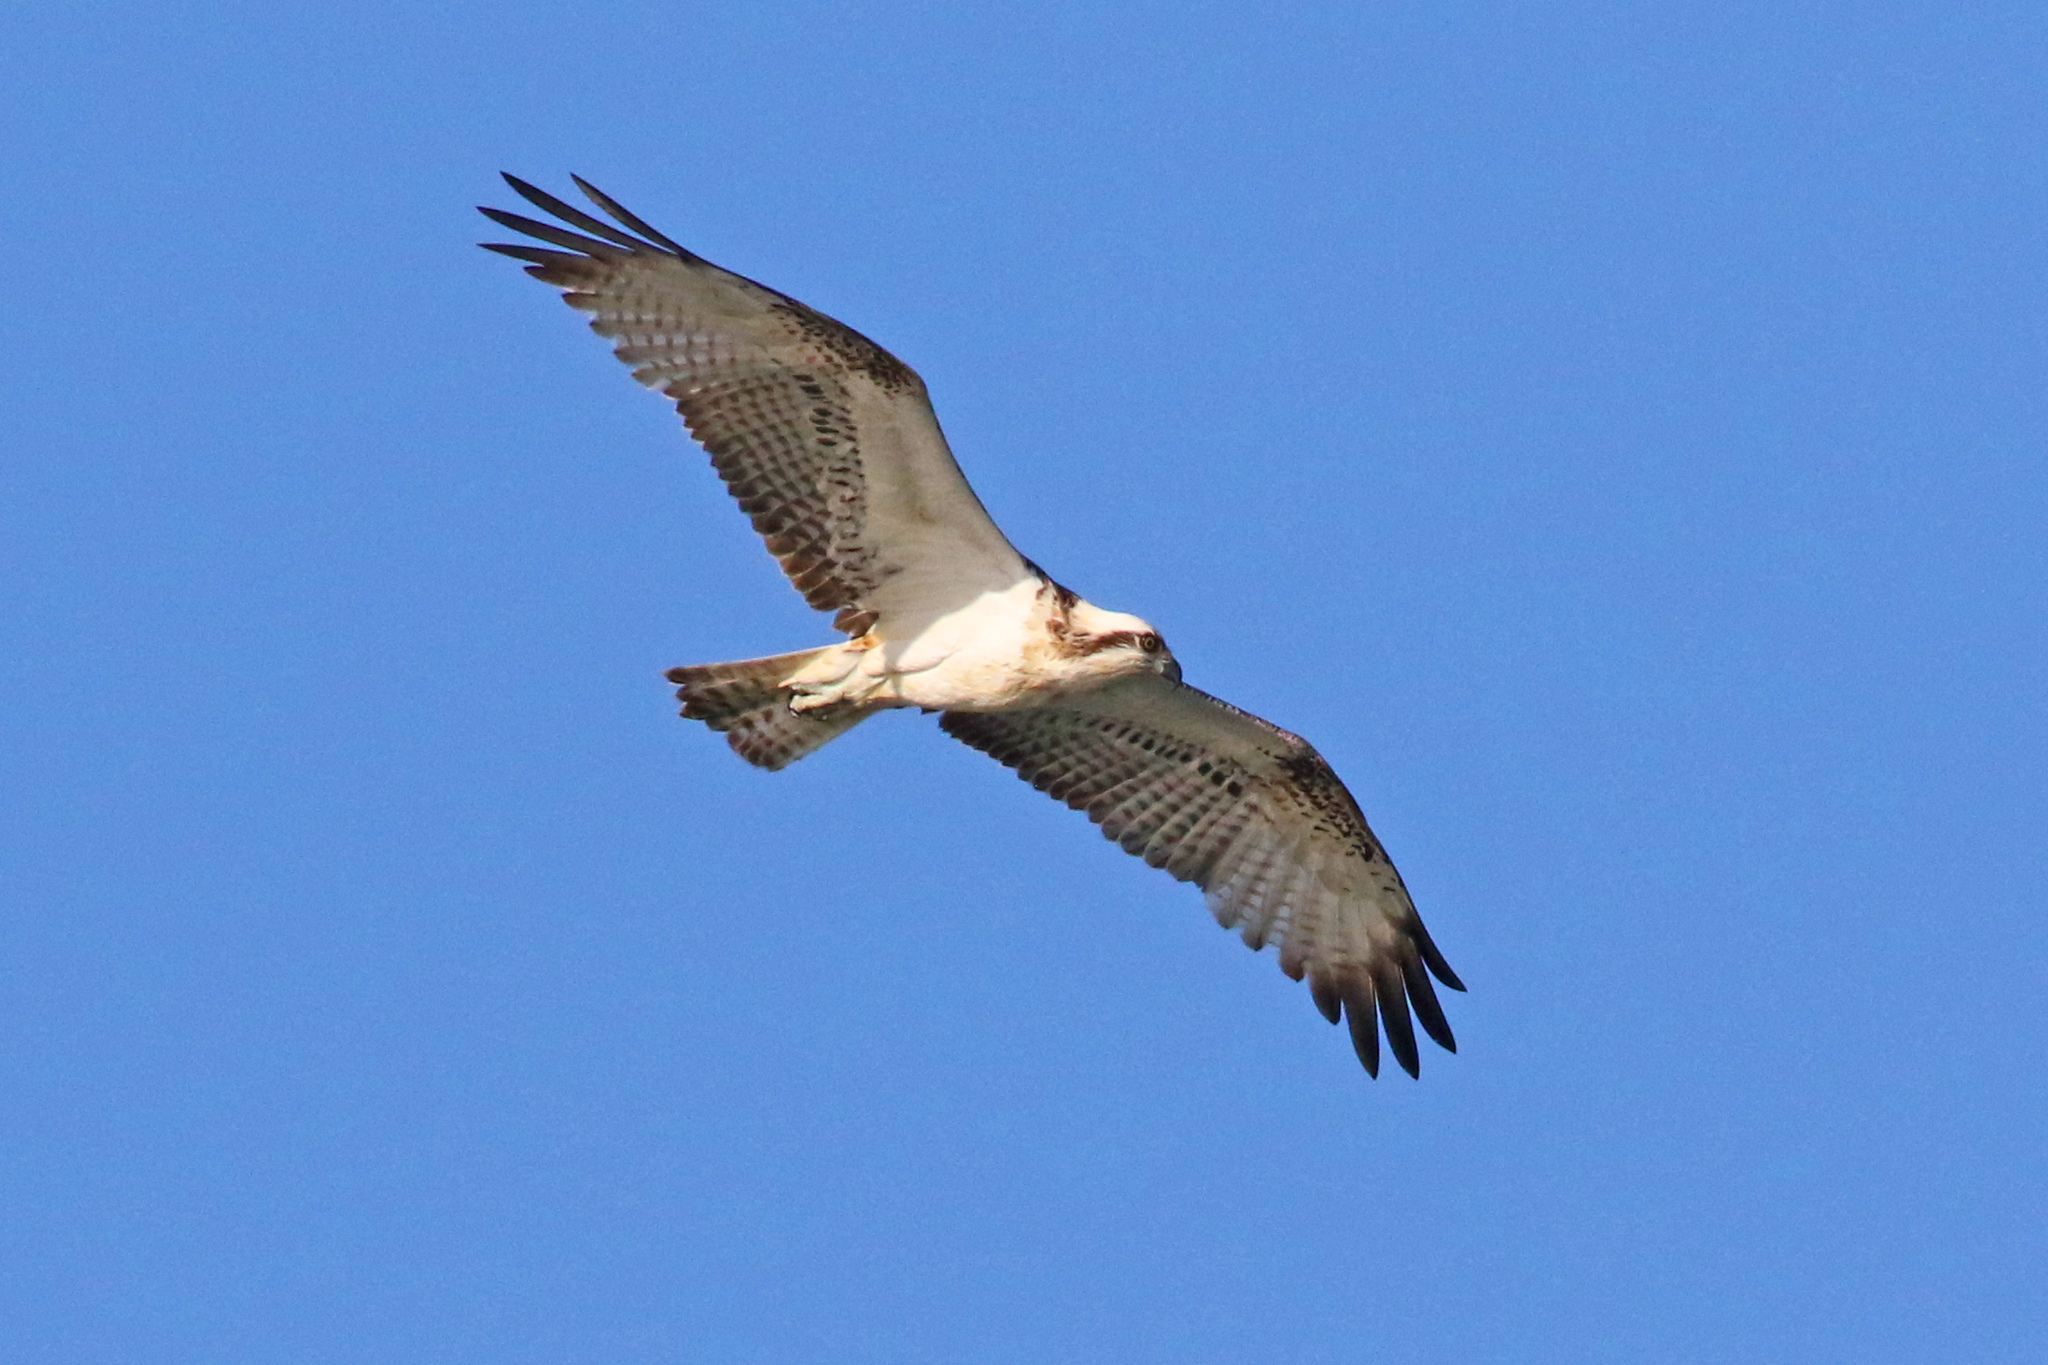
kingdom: Animalia
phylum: Chordata
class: Aves
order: Accipitriformes
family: Pandionidae
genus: Pandion
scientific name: Pandion haliaetus
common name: Osprey
